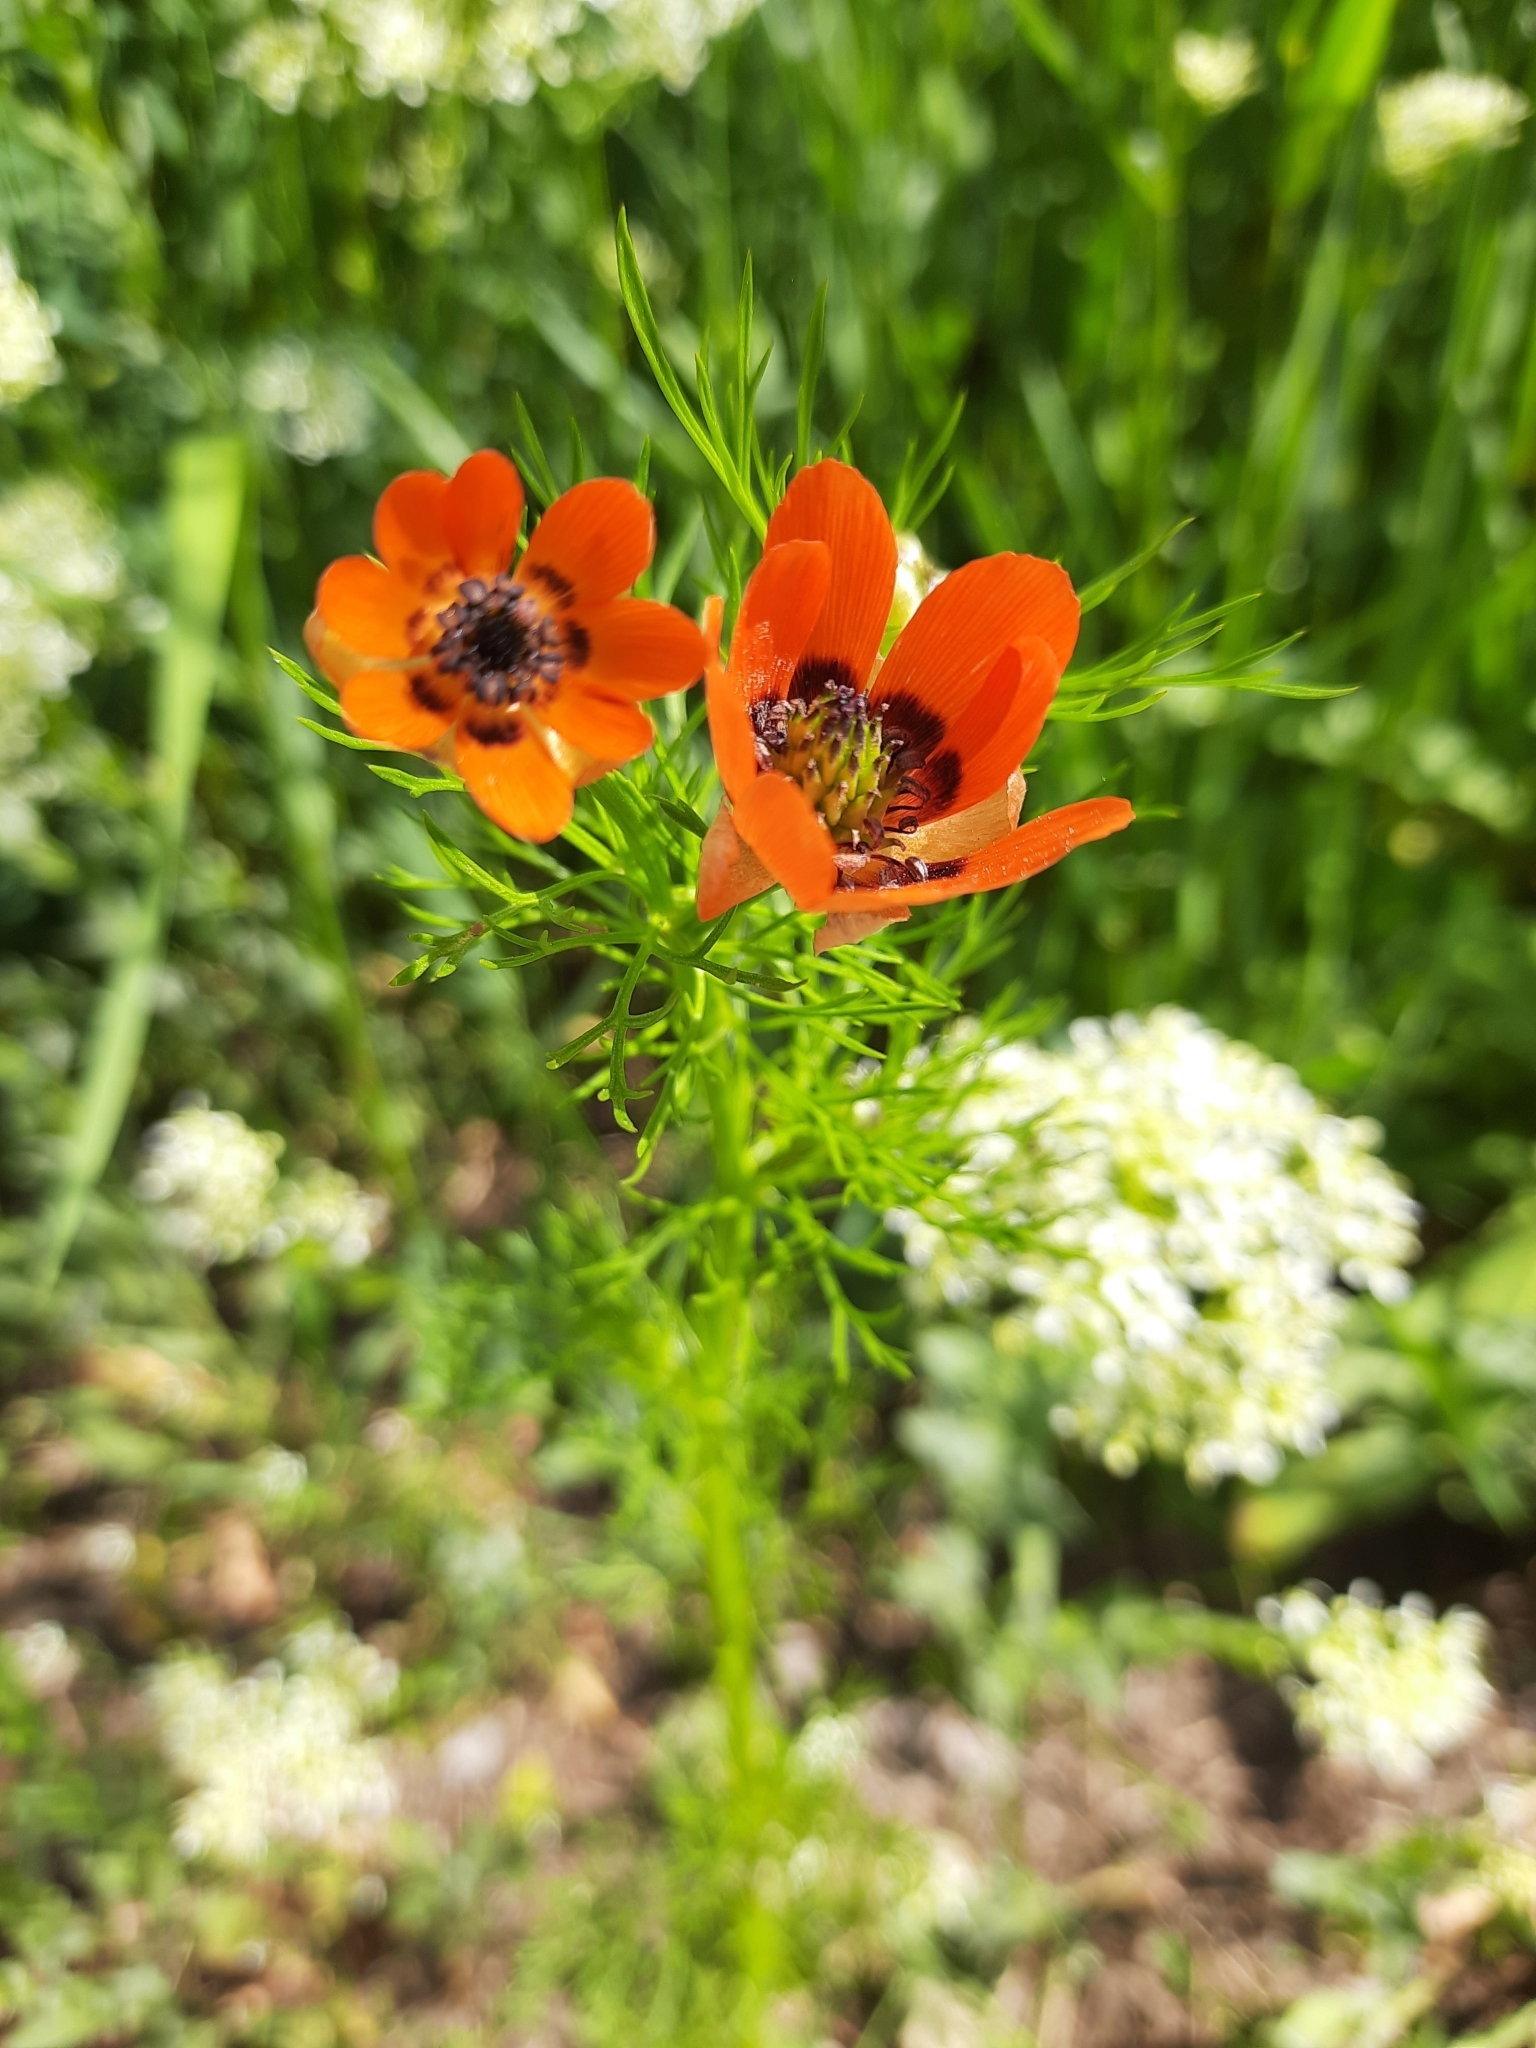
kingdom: Plantae
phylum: Tracheophyta
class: Magnoliopsida
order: Ranunculales
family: Ranunculaceae
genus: Adonis
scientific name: Adonis aestivalis
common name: Summer pheasant's-eye
